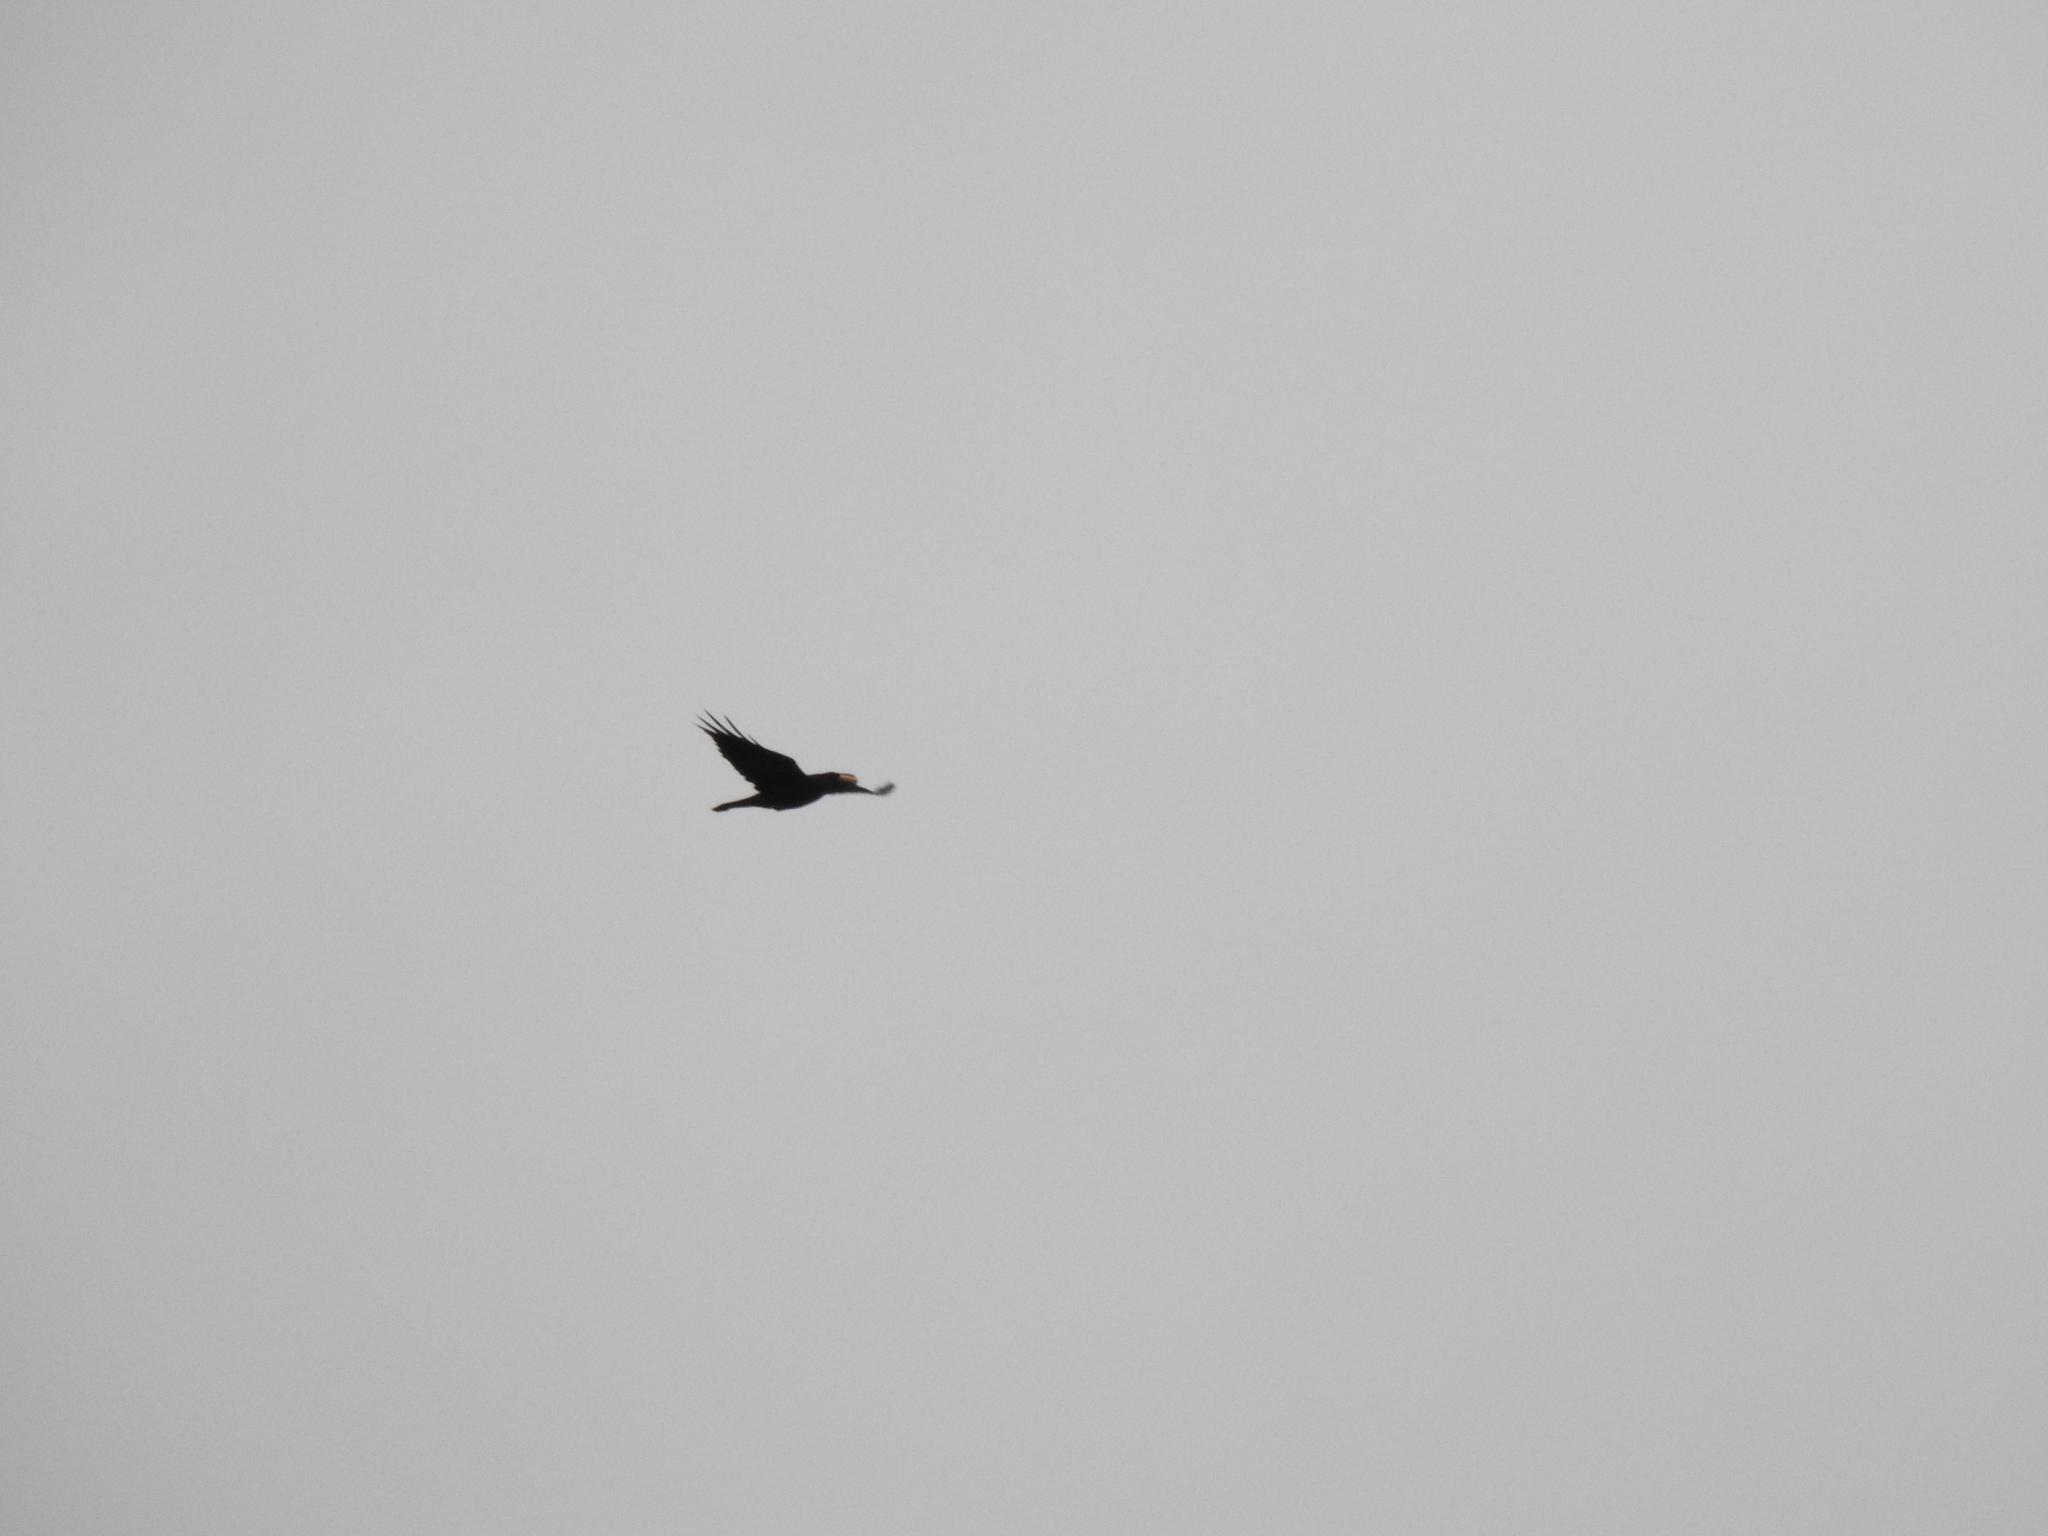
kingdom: Animalia
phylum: Chordata
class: Aves
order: Passeriformes
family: Corvidae
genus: Corvus
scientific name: Corvus corax
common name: Common raven
